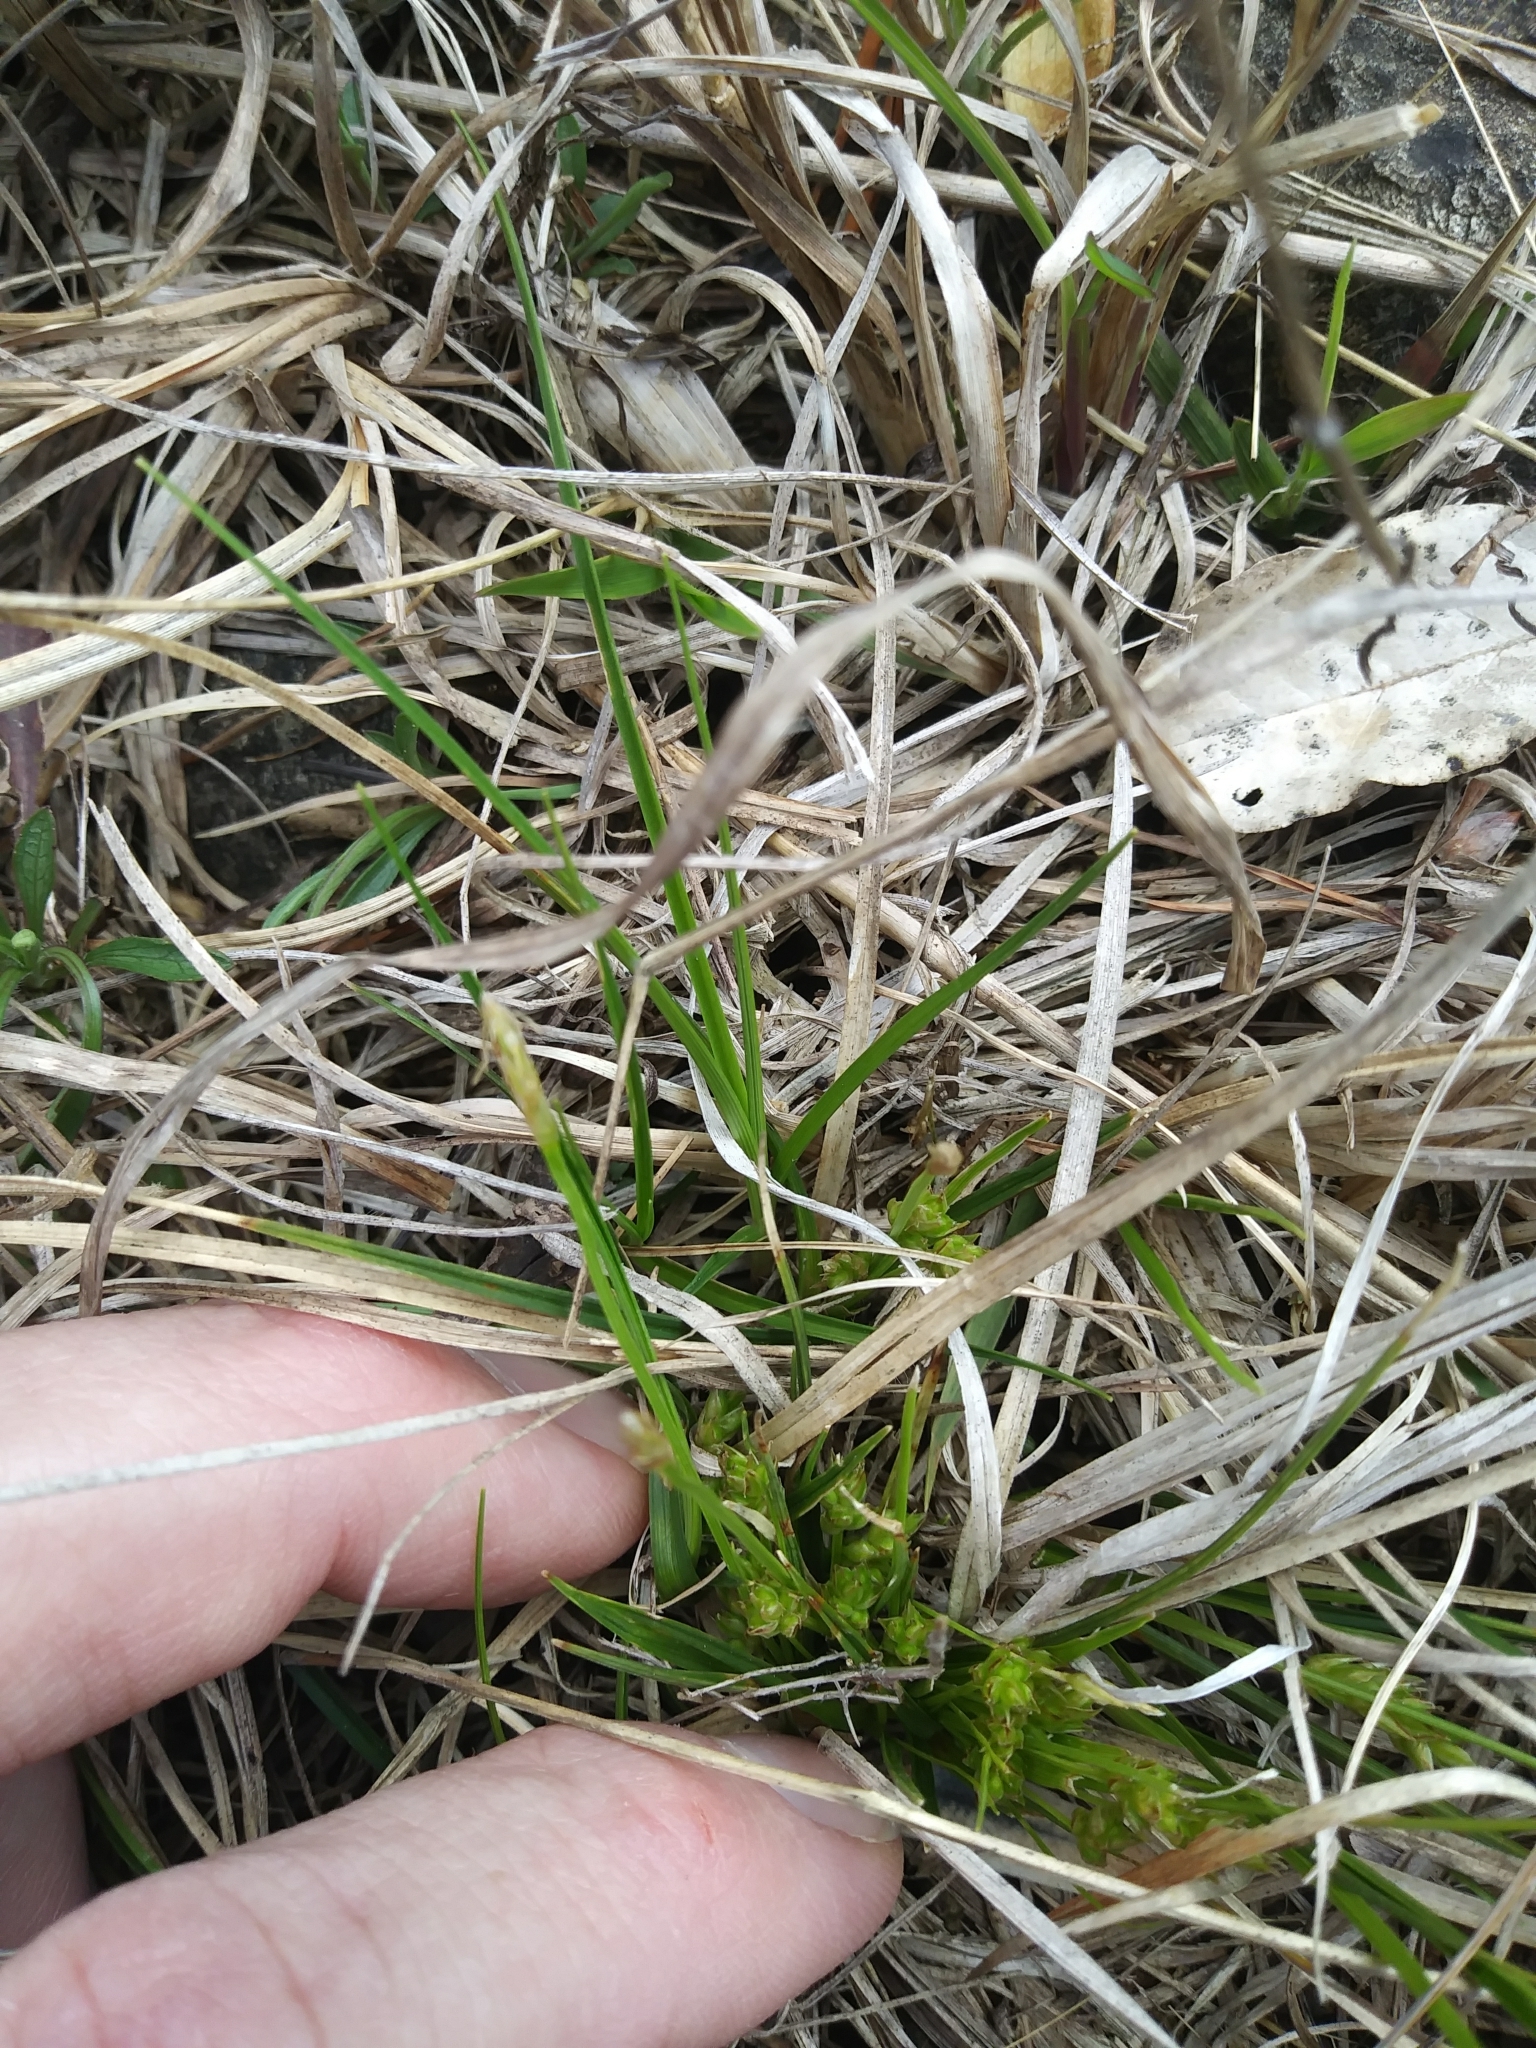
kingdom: Plantae
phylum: Tracheophyta
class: Liliopsida
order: Poales
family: Cyperaceae
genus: Carex
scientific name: Carex umbellata
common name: Early oak sedge
